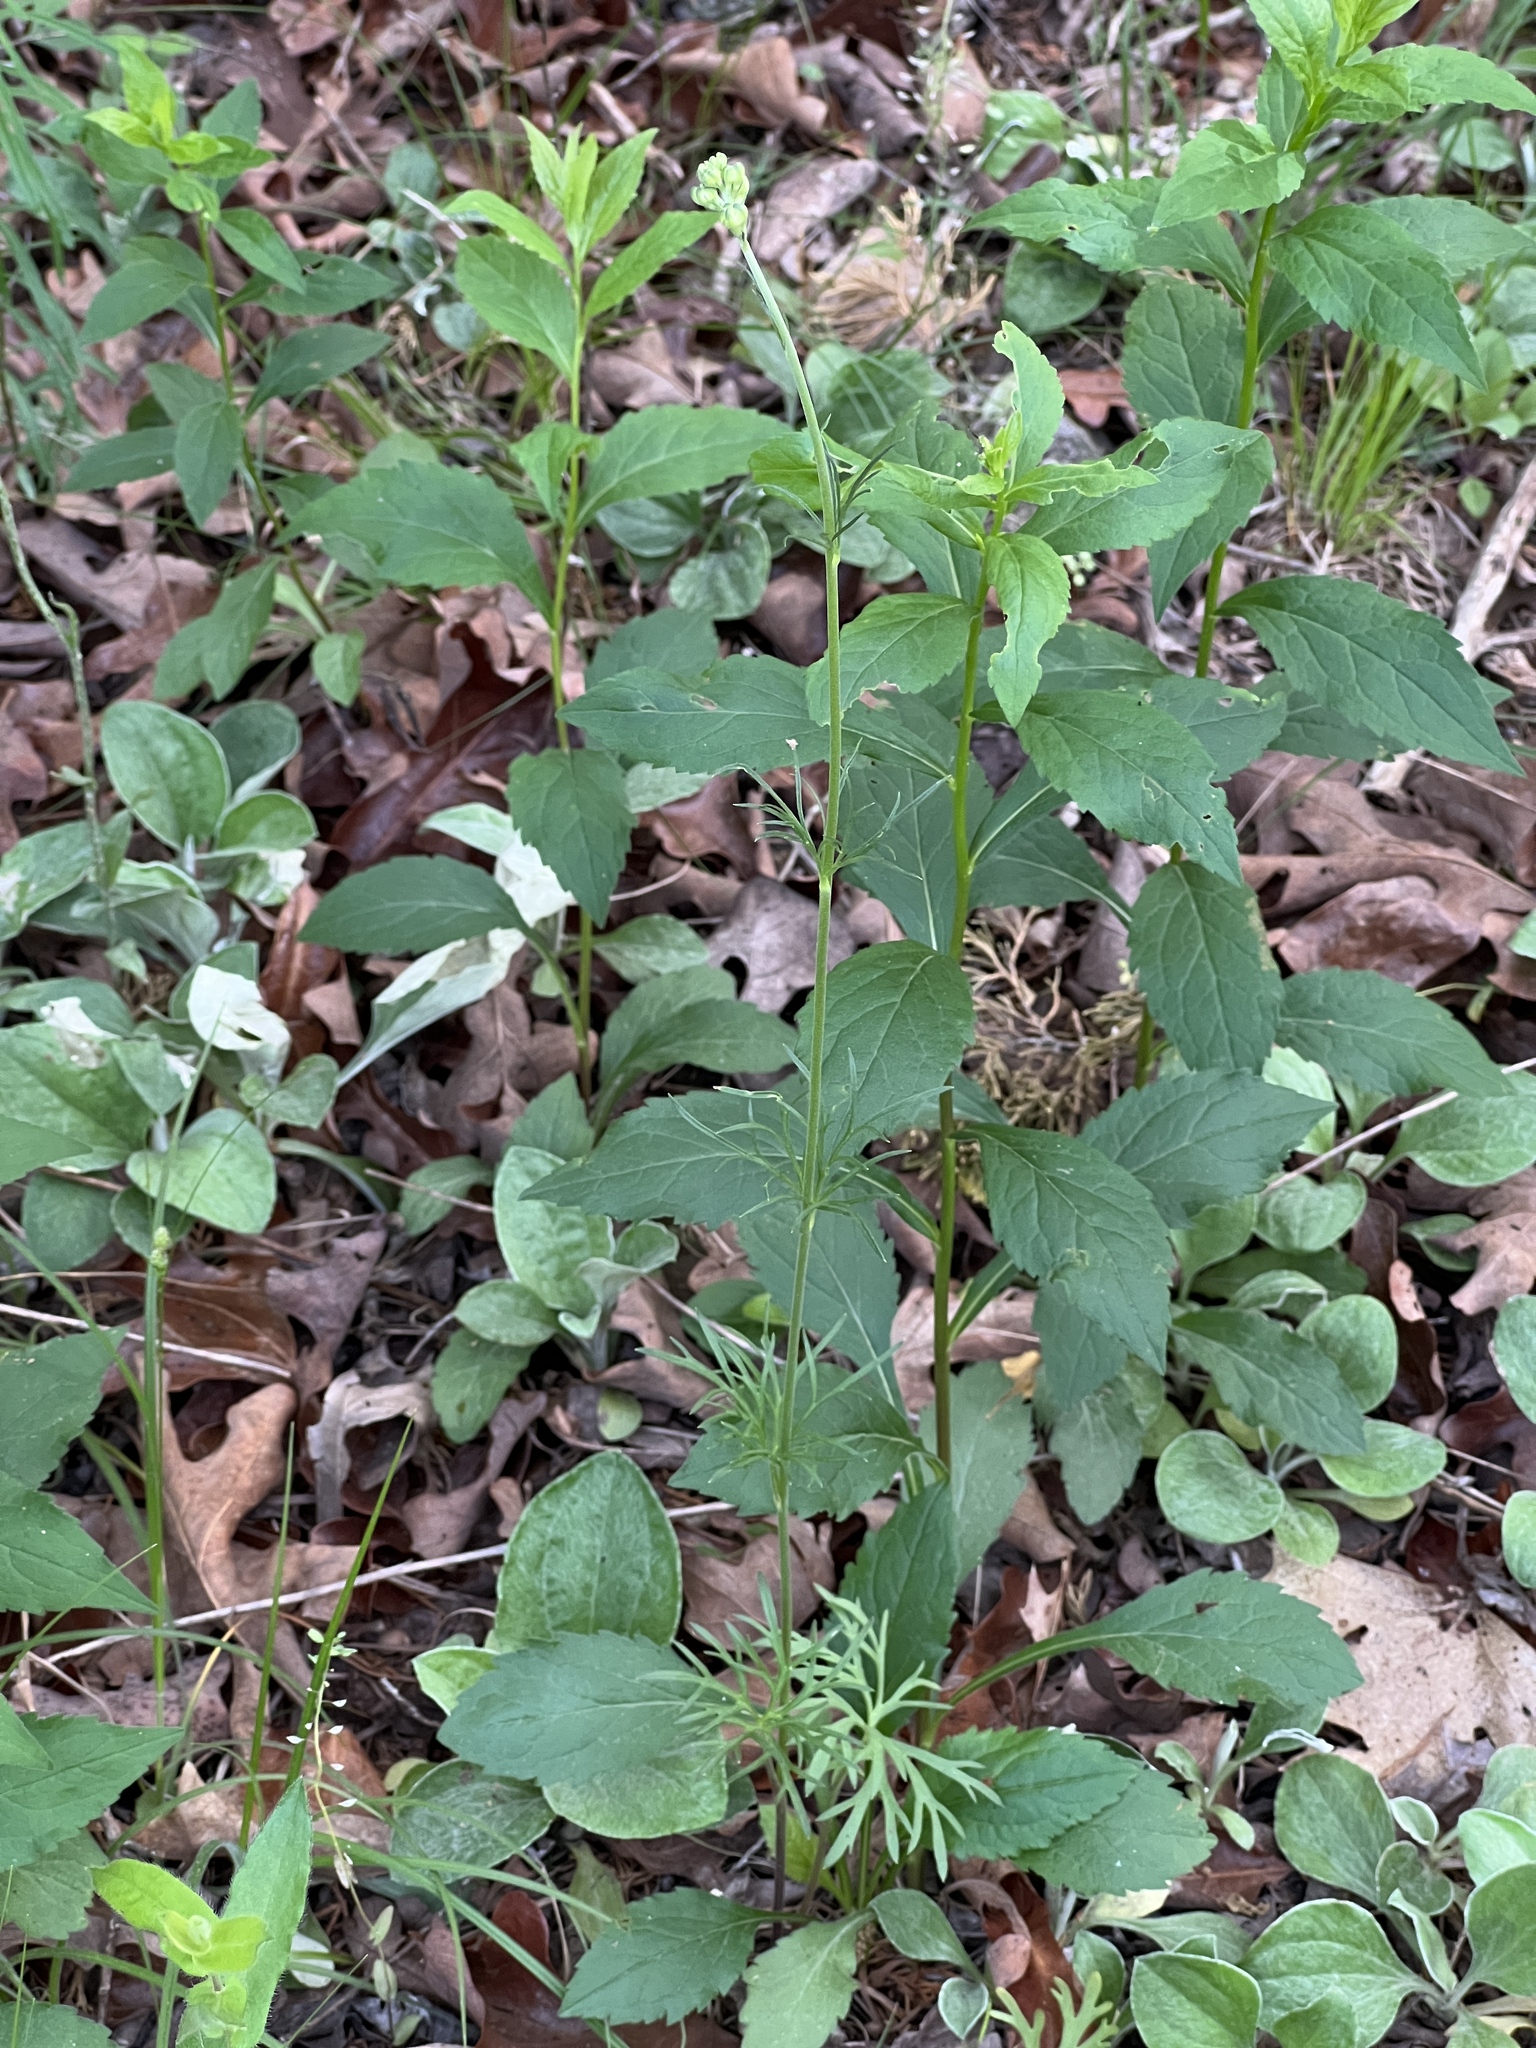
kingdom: Plantae
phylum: Tracheophyta
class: Magnoliopsida
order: Ranunculales
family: Ranunculaceae
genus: Delphinium
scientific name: Delphinium carolinianum
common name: Carolina larkspur
